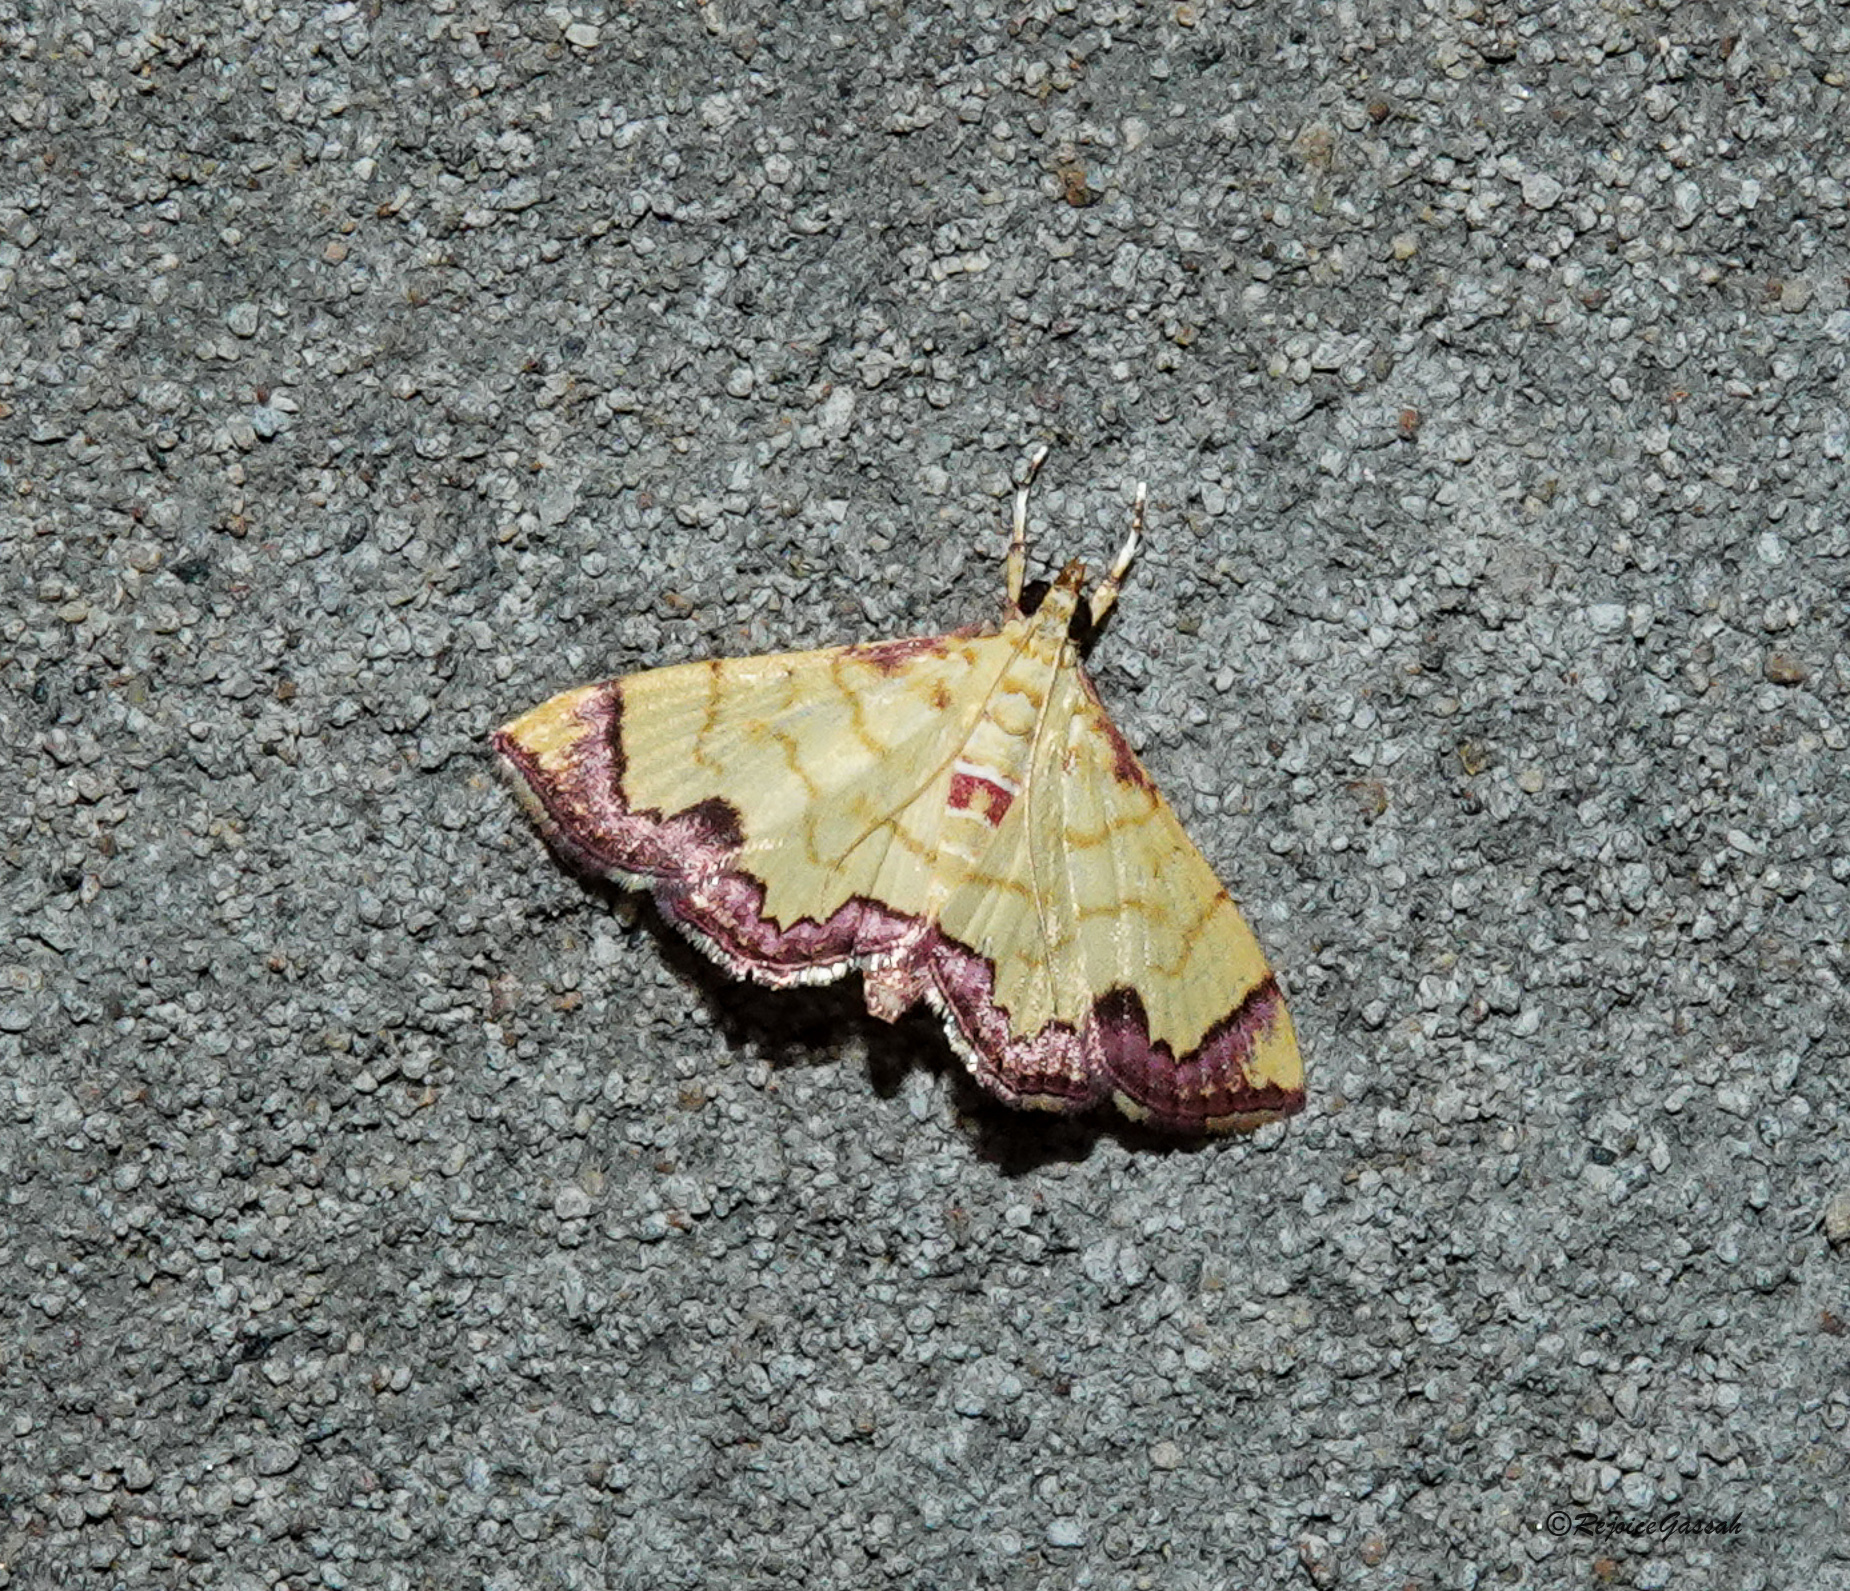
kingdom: Animalia
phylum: Arthropoda
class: Insecta
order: Lepidoptera
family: Crambidae
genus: Hyalobathra
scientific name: Hyalobathra phoenicozona
